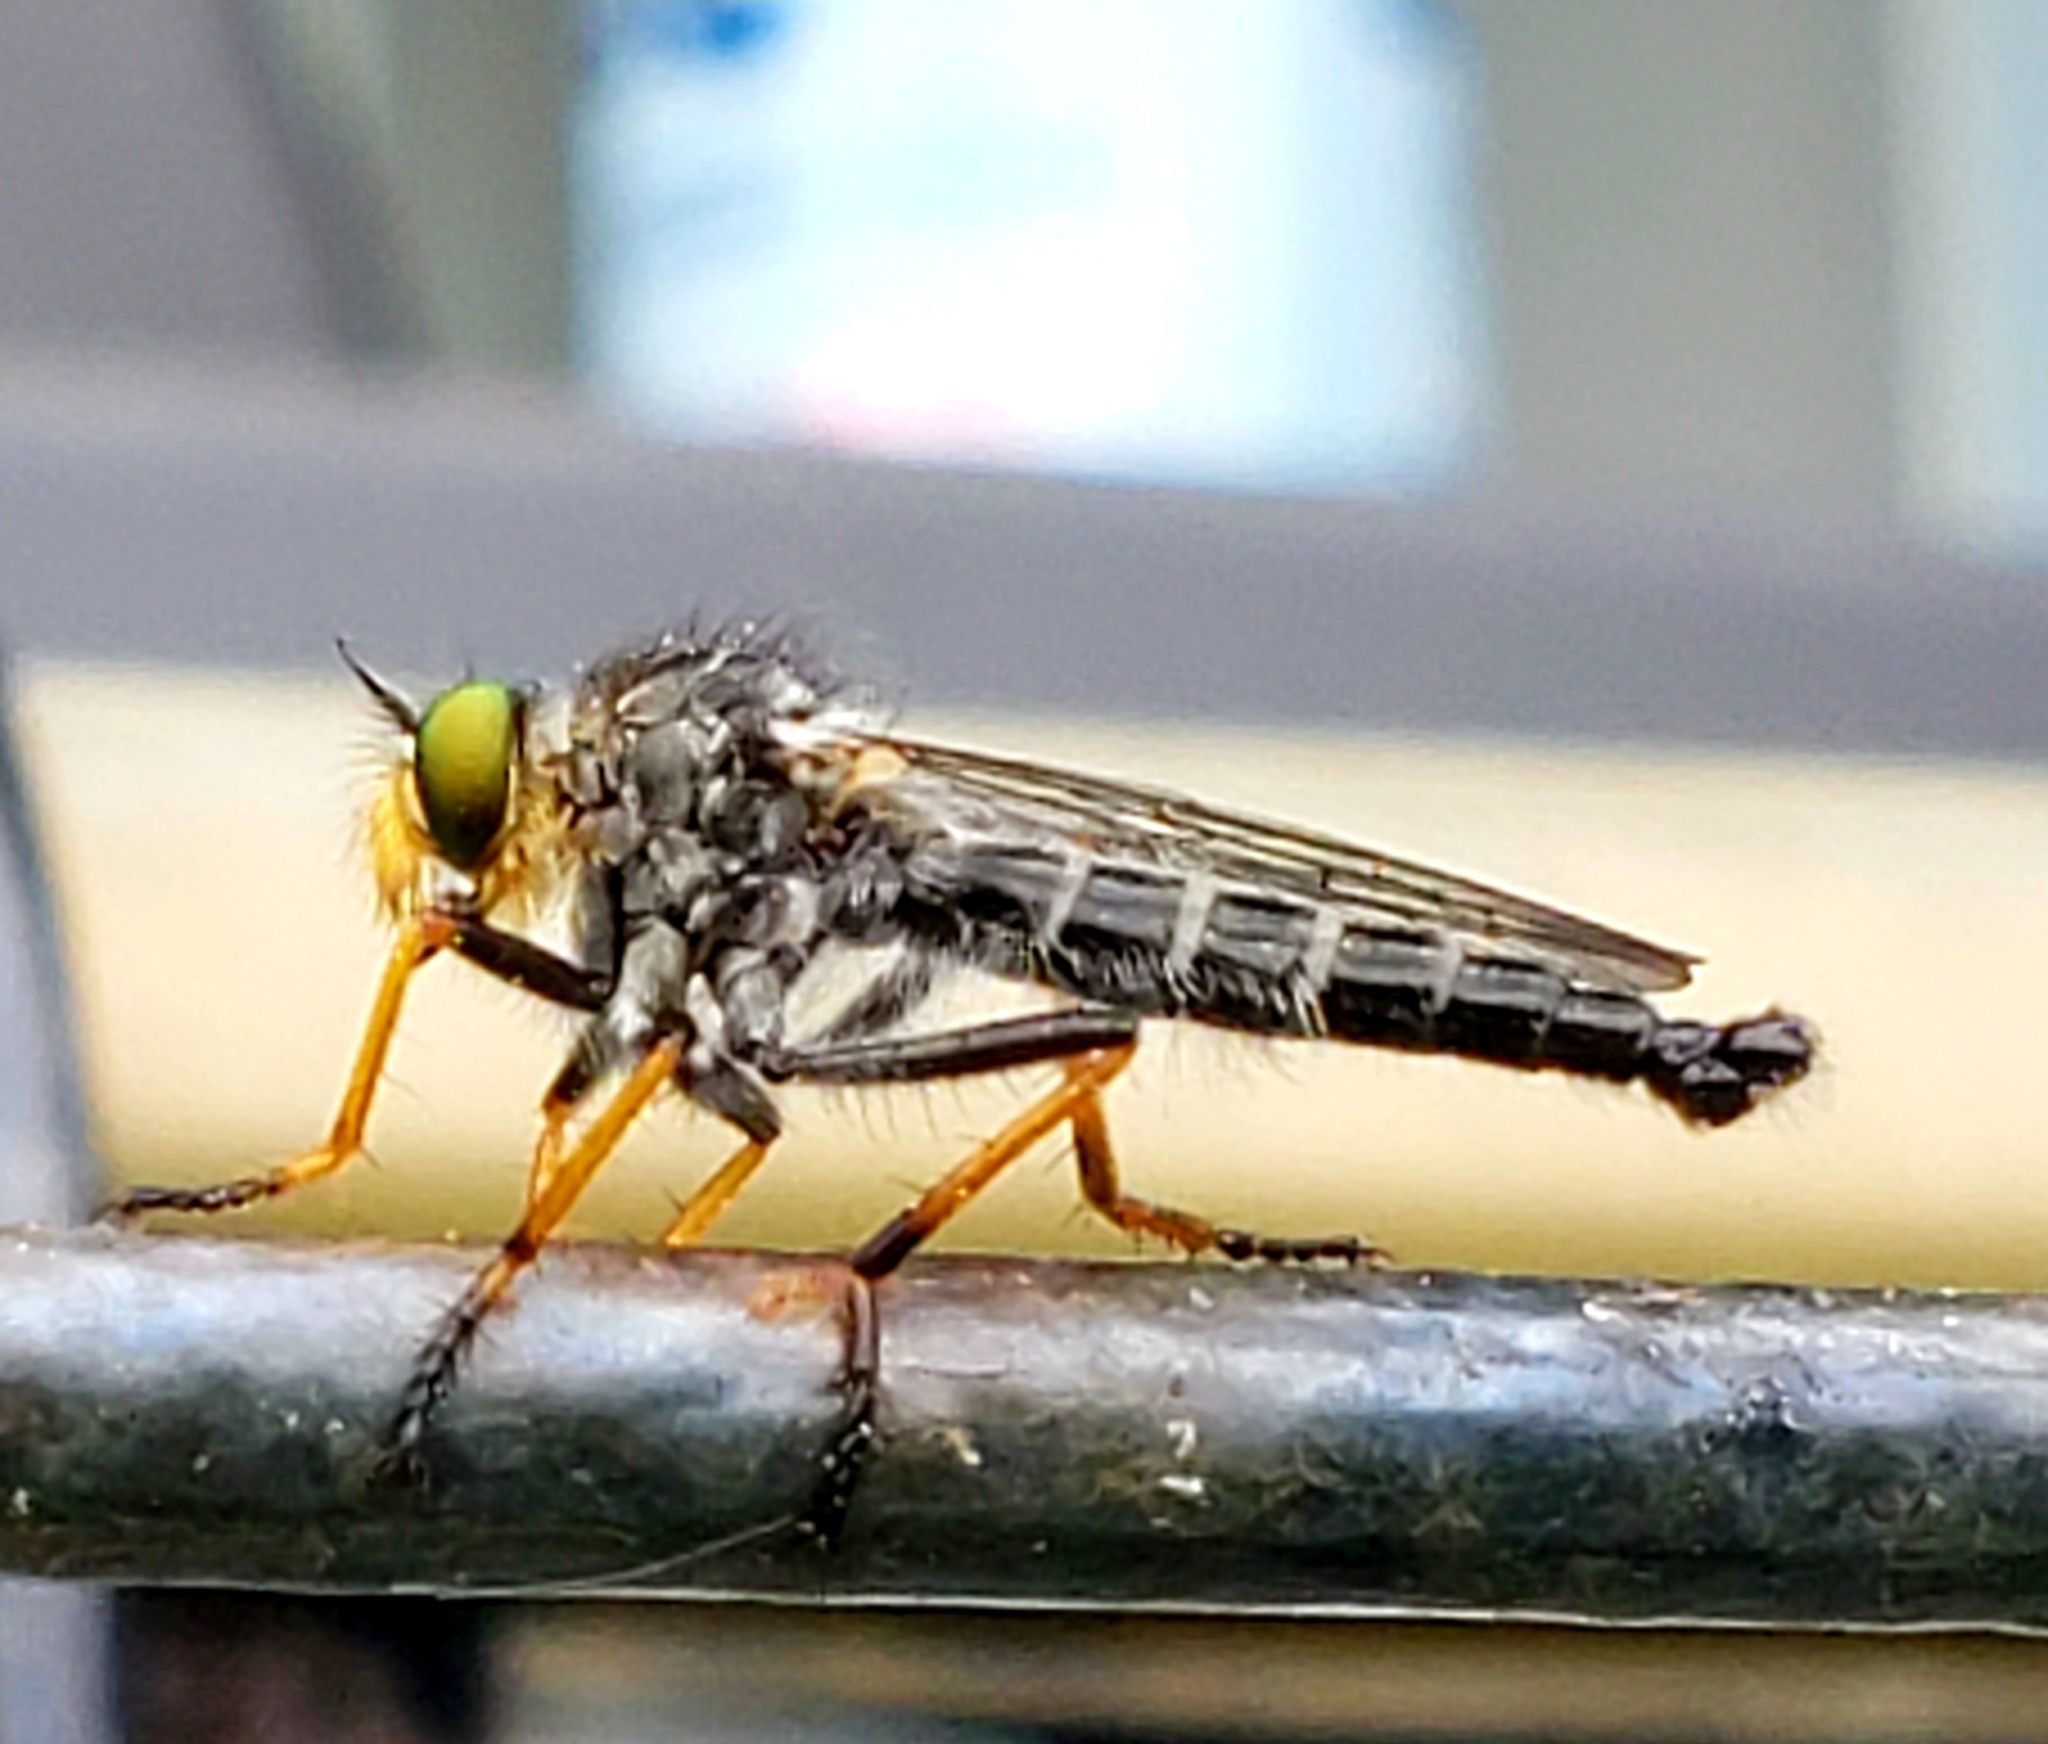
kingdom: Animalia
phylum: Arthropoda
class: Insecta
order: Diptera
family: Asilidae
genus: Neoitamus
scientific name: Neoitamus orphne
